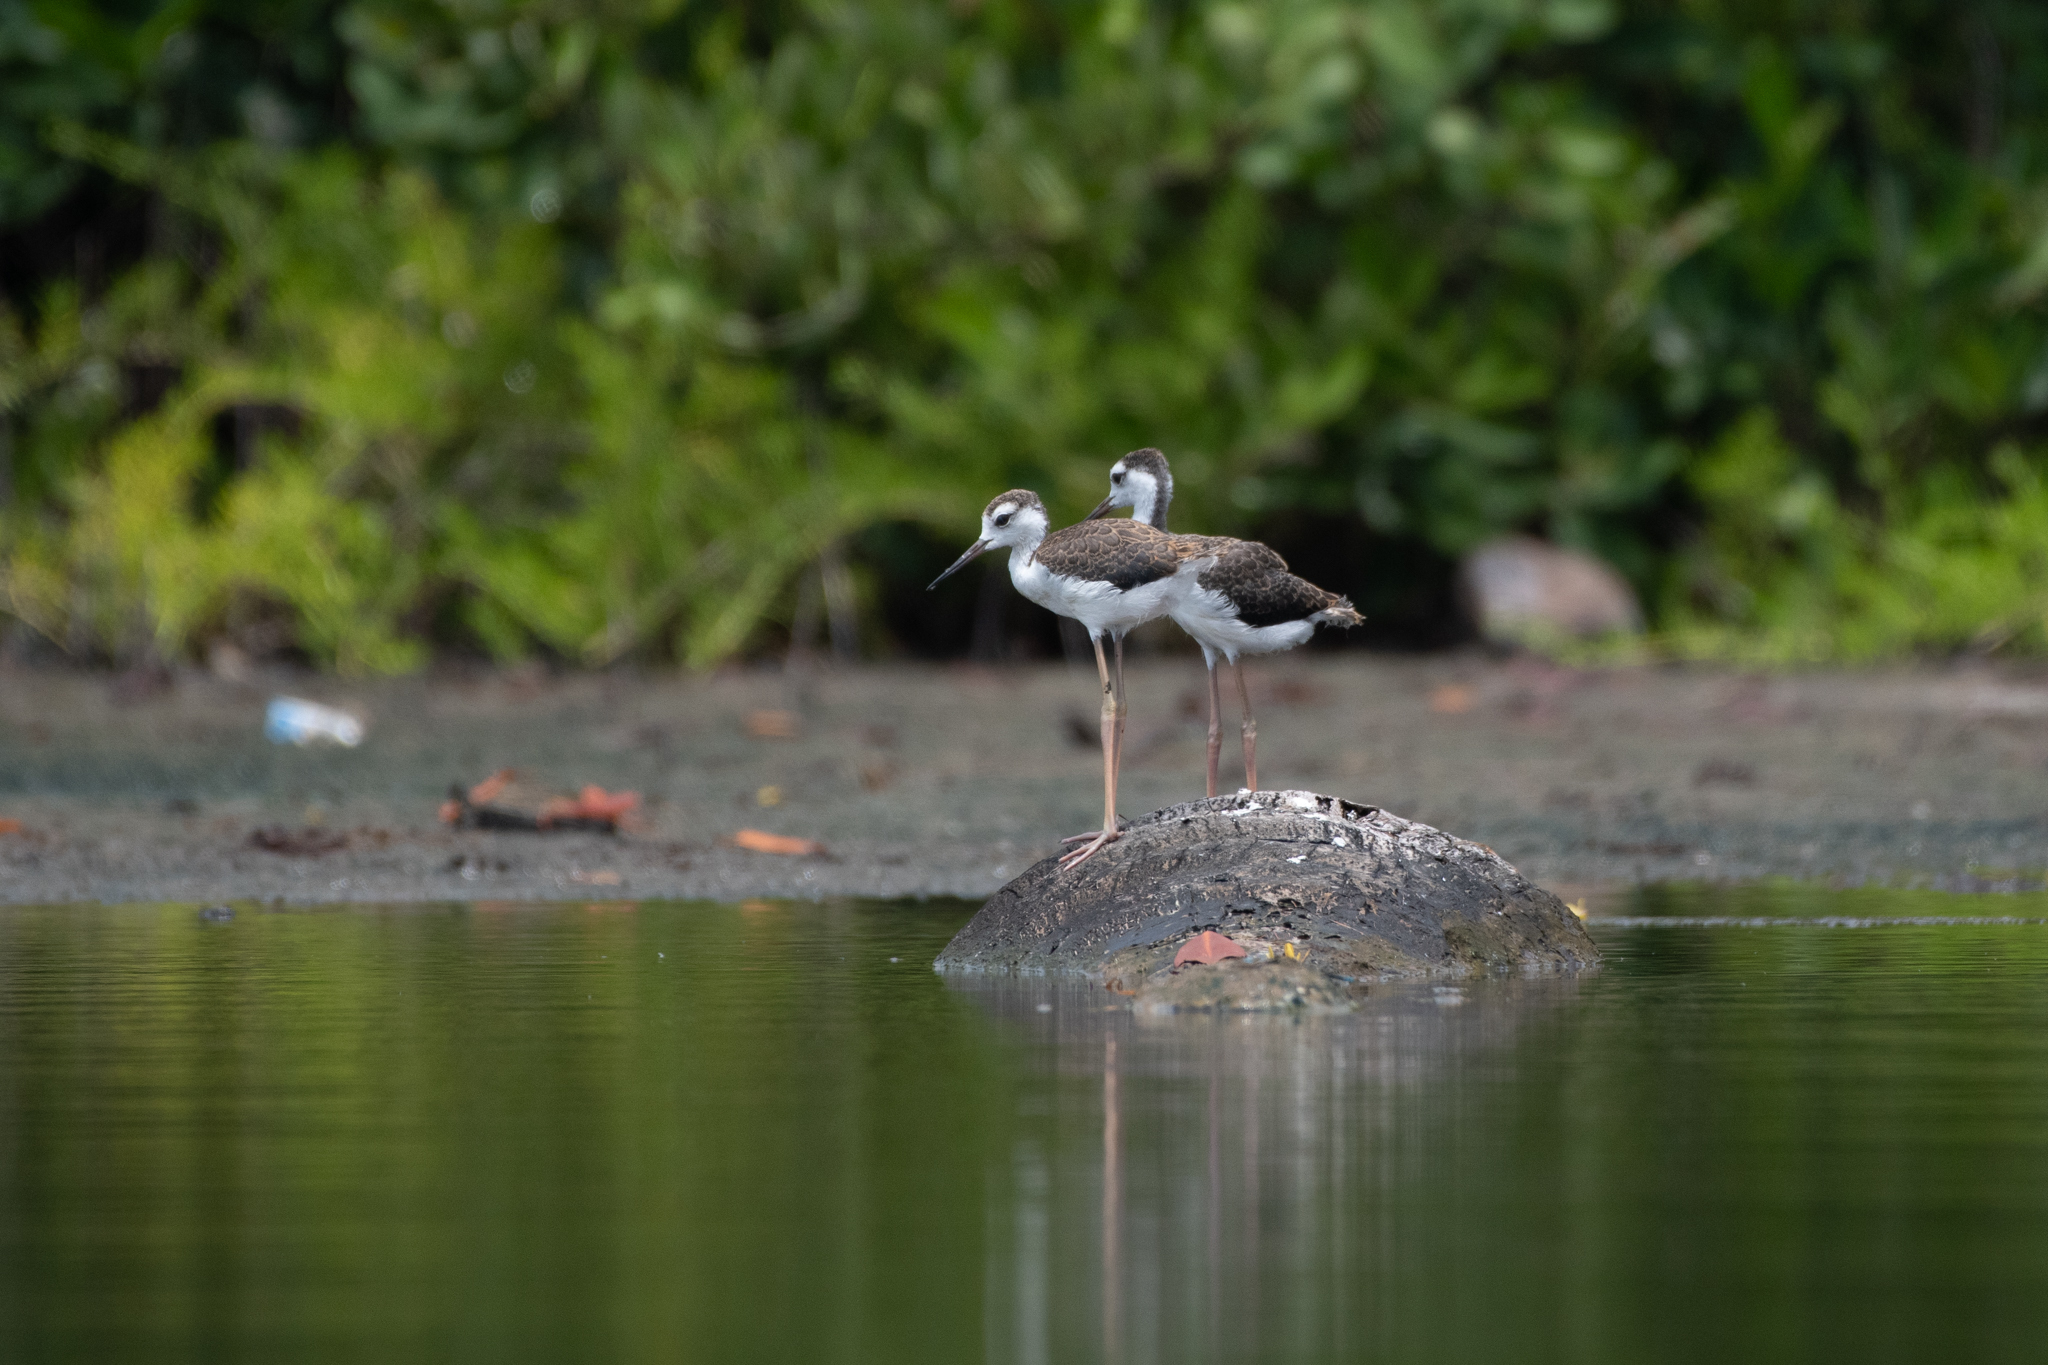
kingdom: Animalia
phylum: Chordata
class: Aves
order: Charadriiformes
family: Recurvirostridae
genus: Himantopus
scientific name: Himantopus mexicanus
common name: Black-necked stilt
